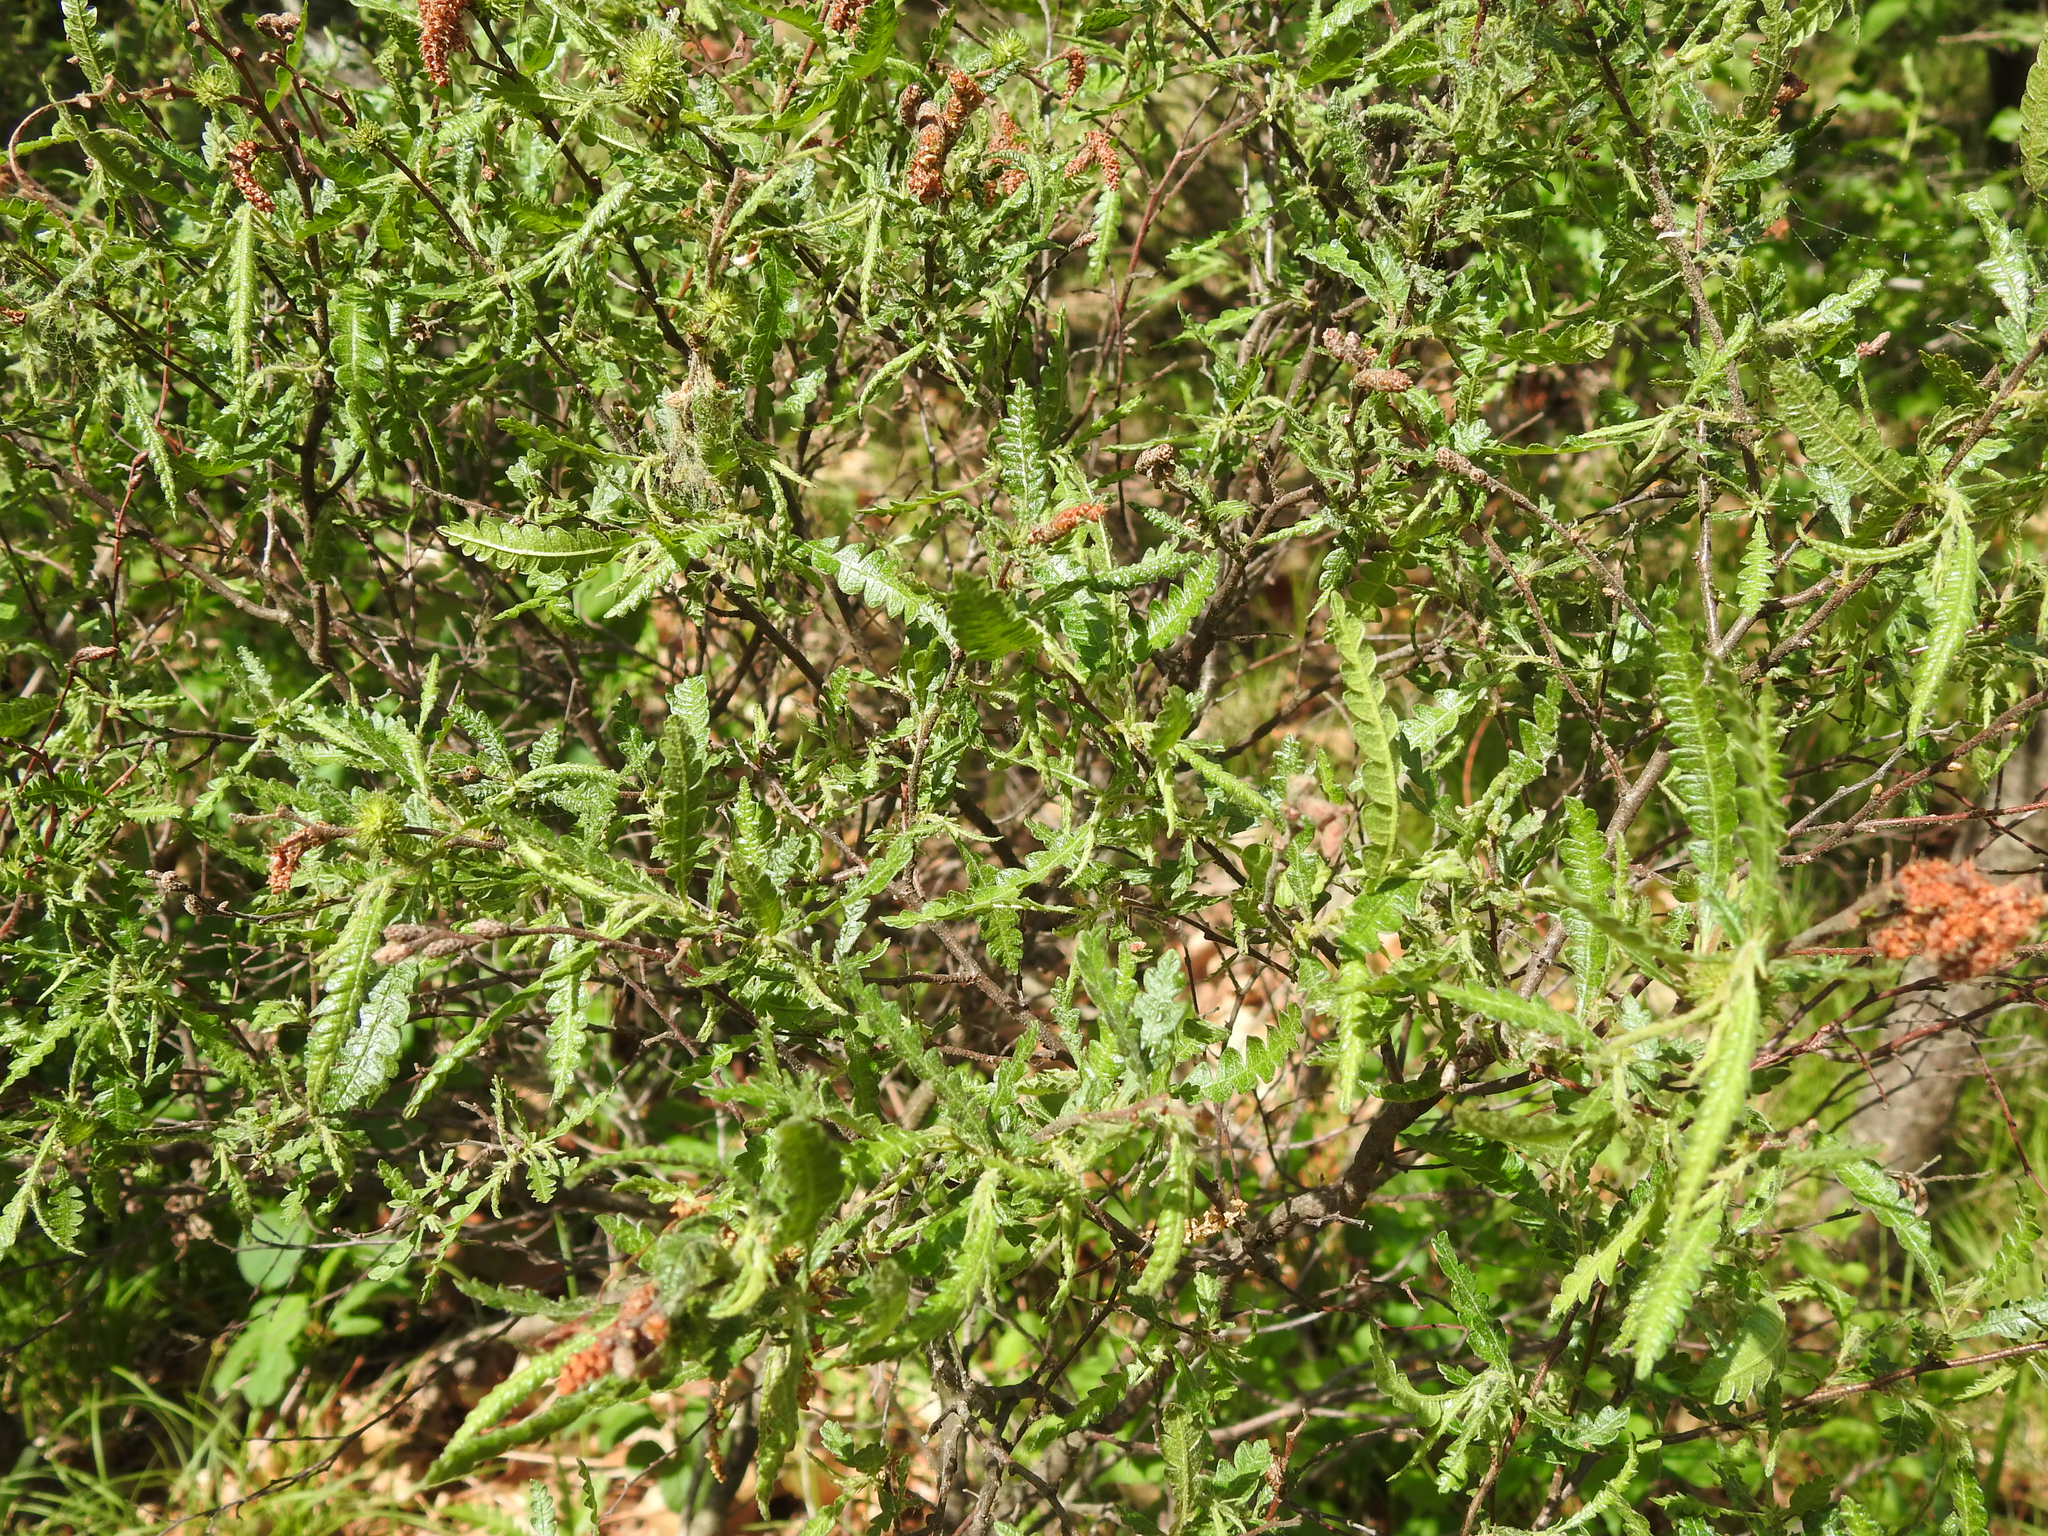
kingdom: Plantae
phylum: Tracheophyta
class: Magnoliopsida
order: Fagales
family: Myricaceae
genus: Comptonia
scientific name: Comptonia peregrina
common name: Sweet-fern
